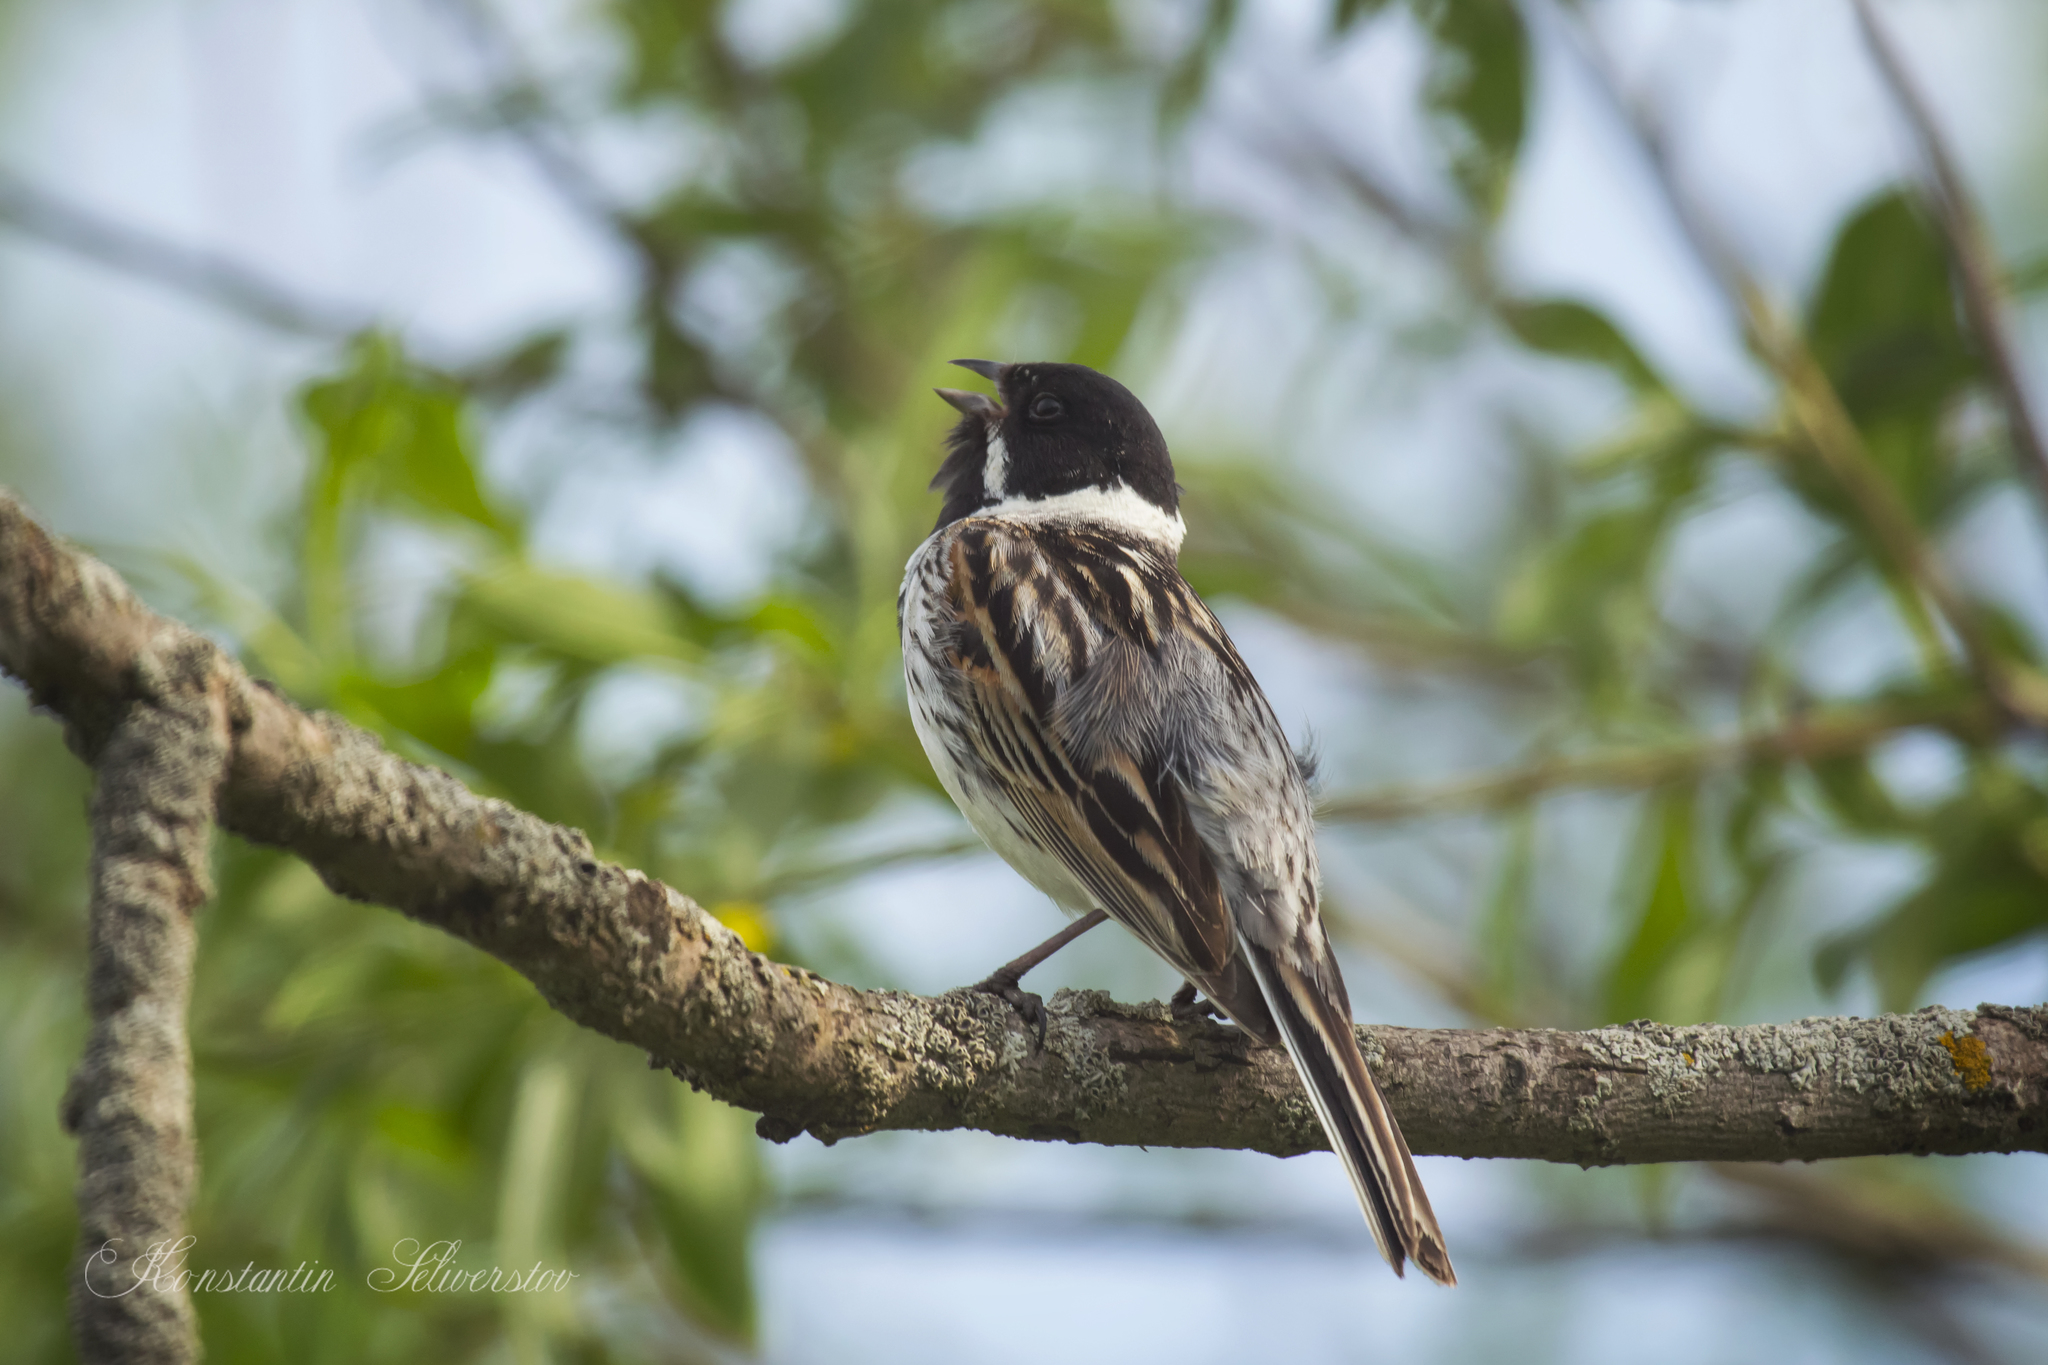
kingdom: Animalia
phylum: Chordata
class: Aves
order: Passeriformes
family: Emberizidae
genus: Emberiza
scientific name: Emberiza schoeniclus
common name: Reed bunting
